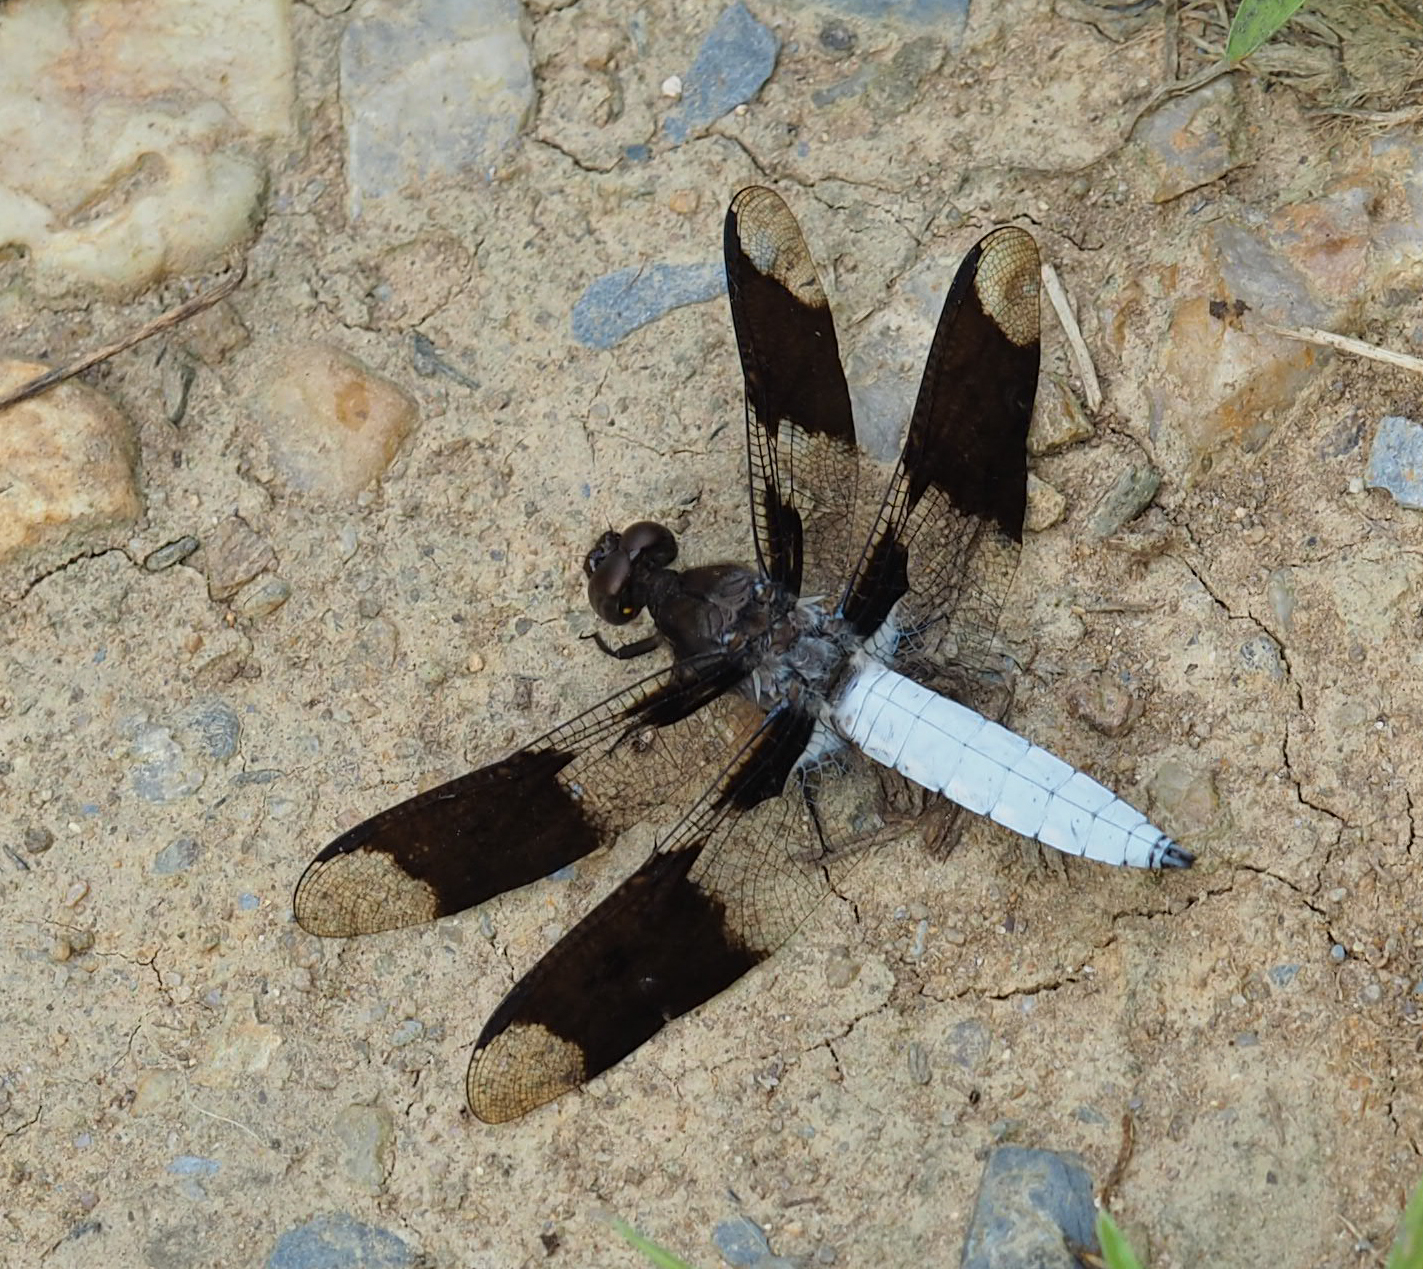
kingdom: Animalia
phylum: Arthropoda
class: Insecta
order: Odonata
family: Libellulidae
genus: Plathemis
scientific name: Plathemis lydia
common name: Common whitetail
